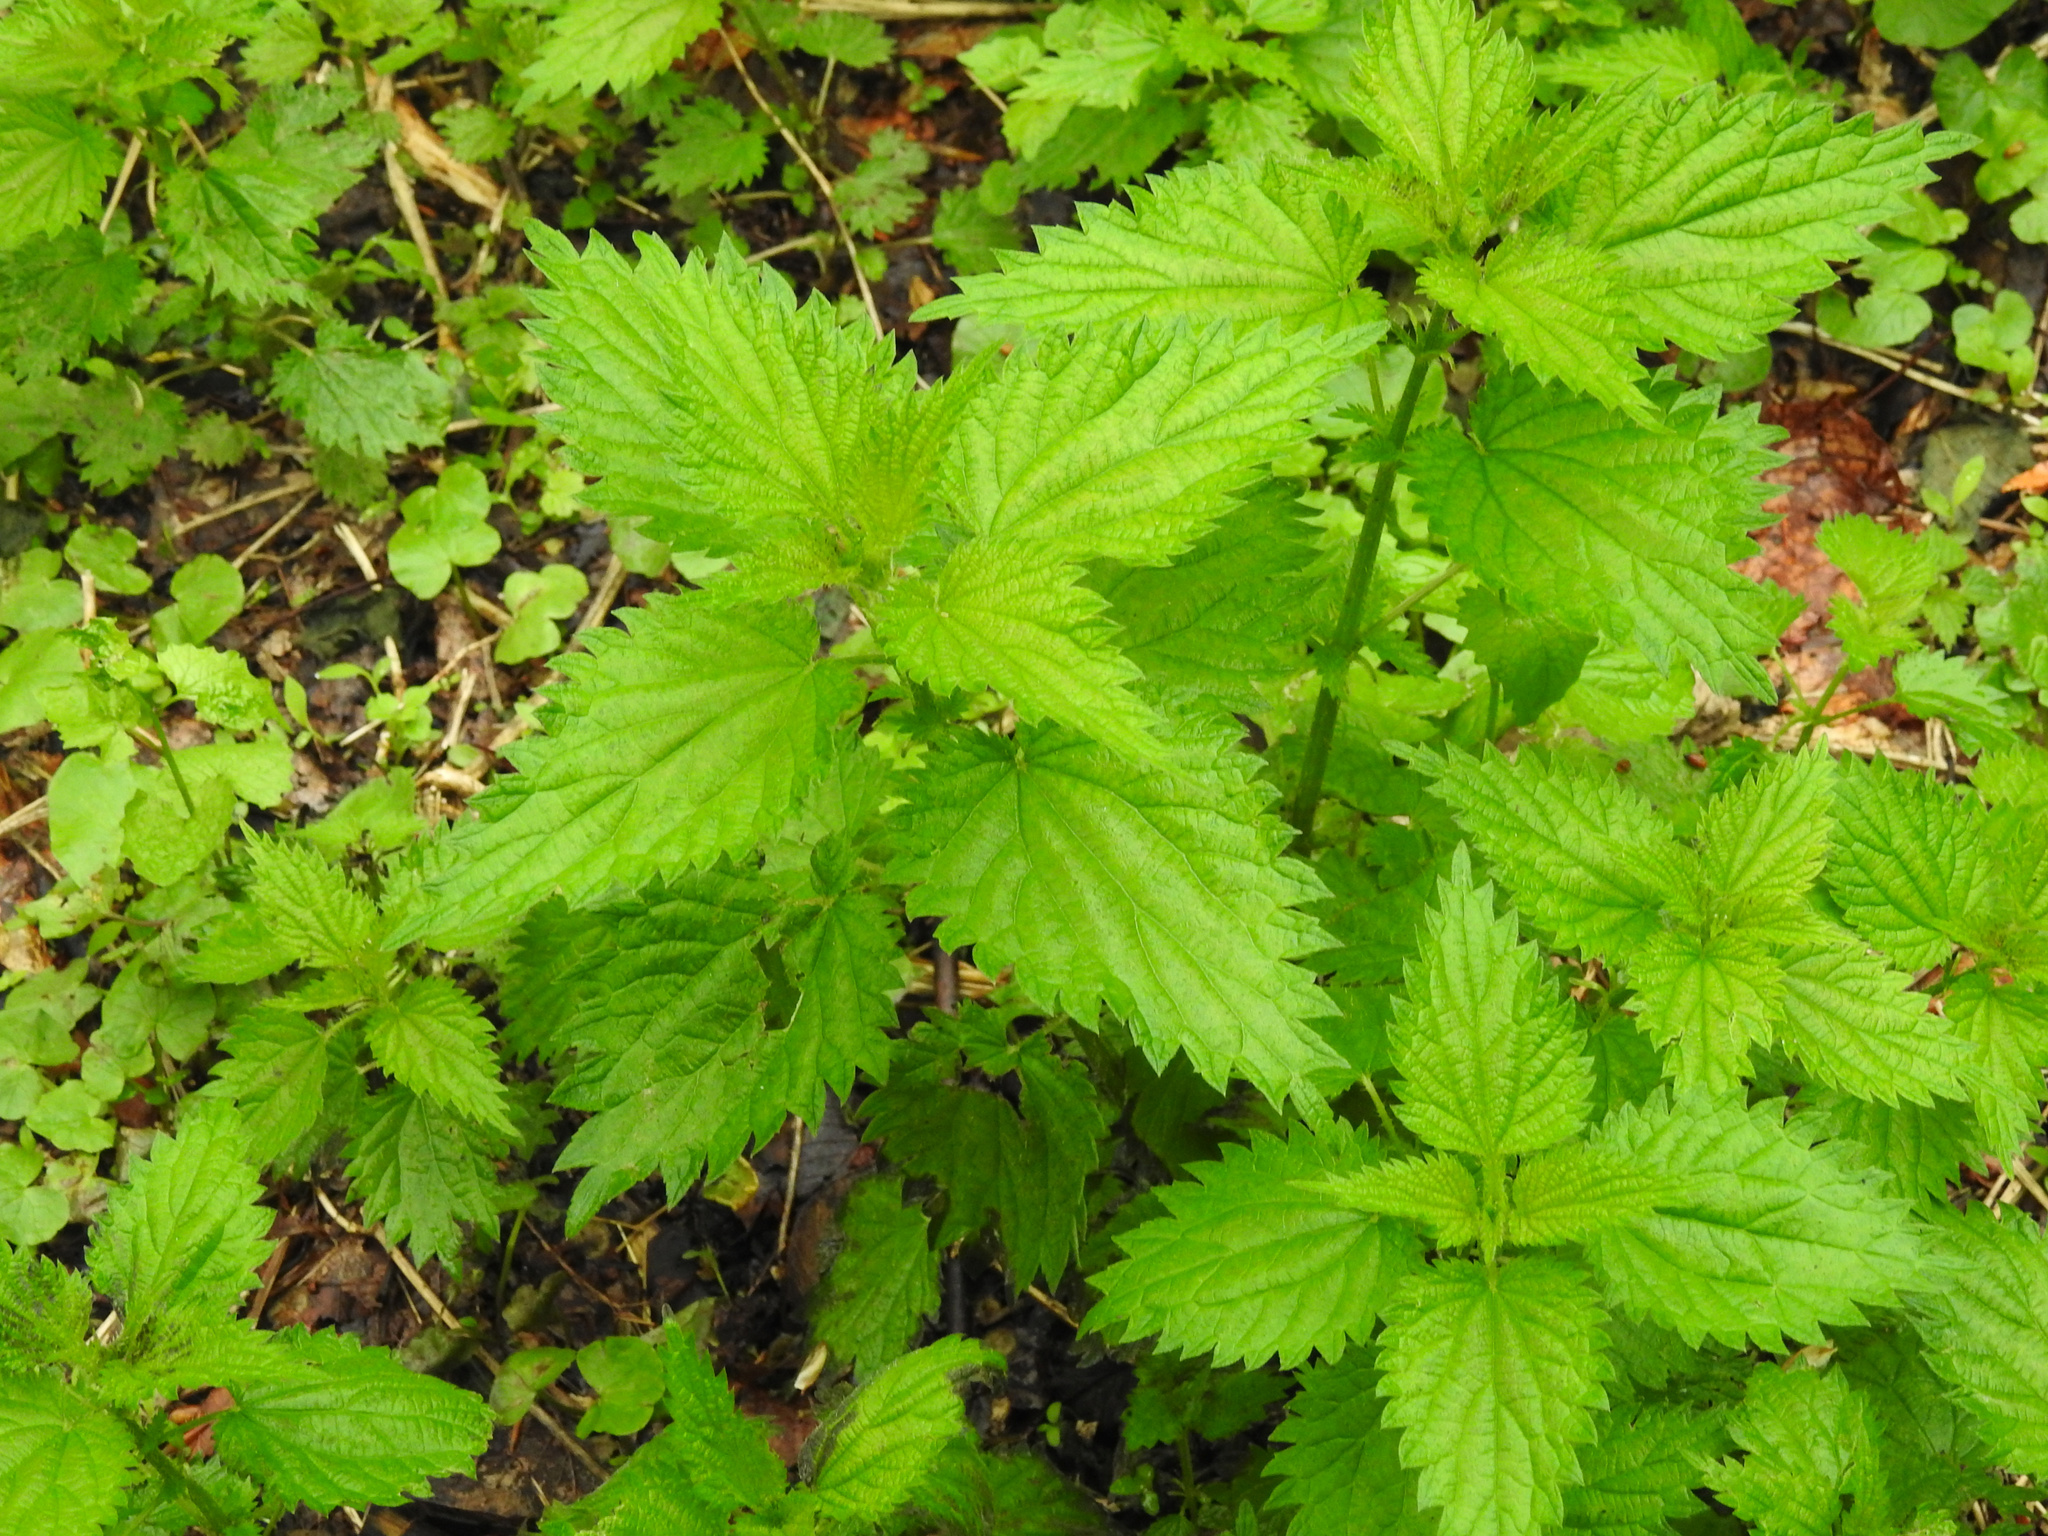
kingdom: Plantae
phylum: Tracheophyta
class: Magnoliopsida
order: Rosales
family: Urticaceae
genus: Urtica
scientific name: Urtica dioica
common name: Common nettle
